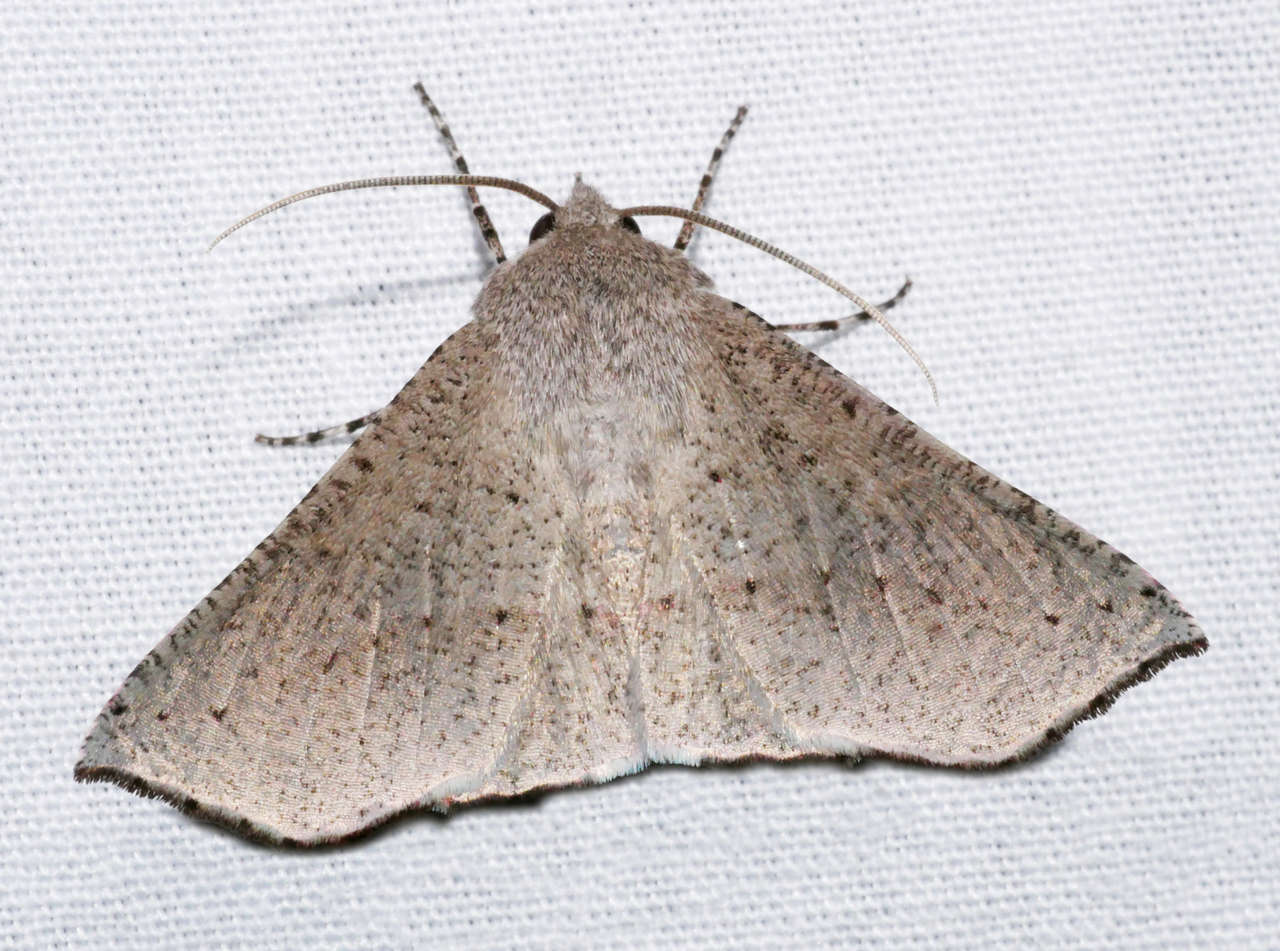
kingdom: Animalia
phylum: Arthropoda
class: Insecta
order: Lepidoptera
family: Geometridae
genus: Oenochroma
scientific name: Oenochroma subustaria
